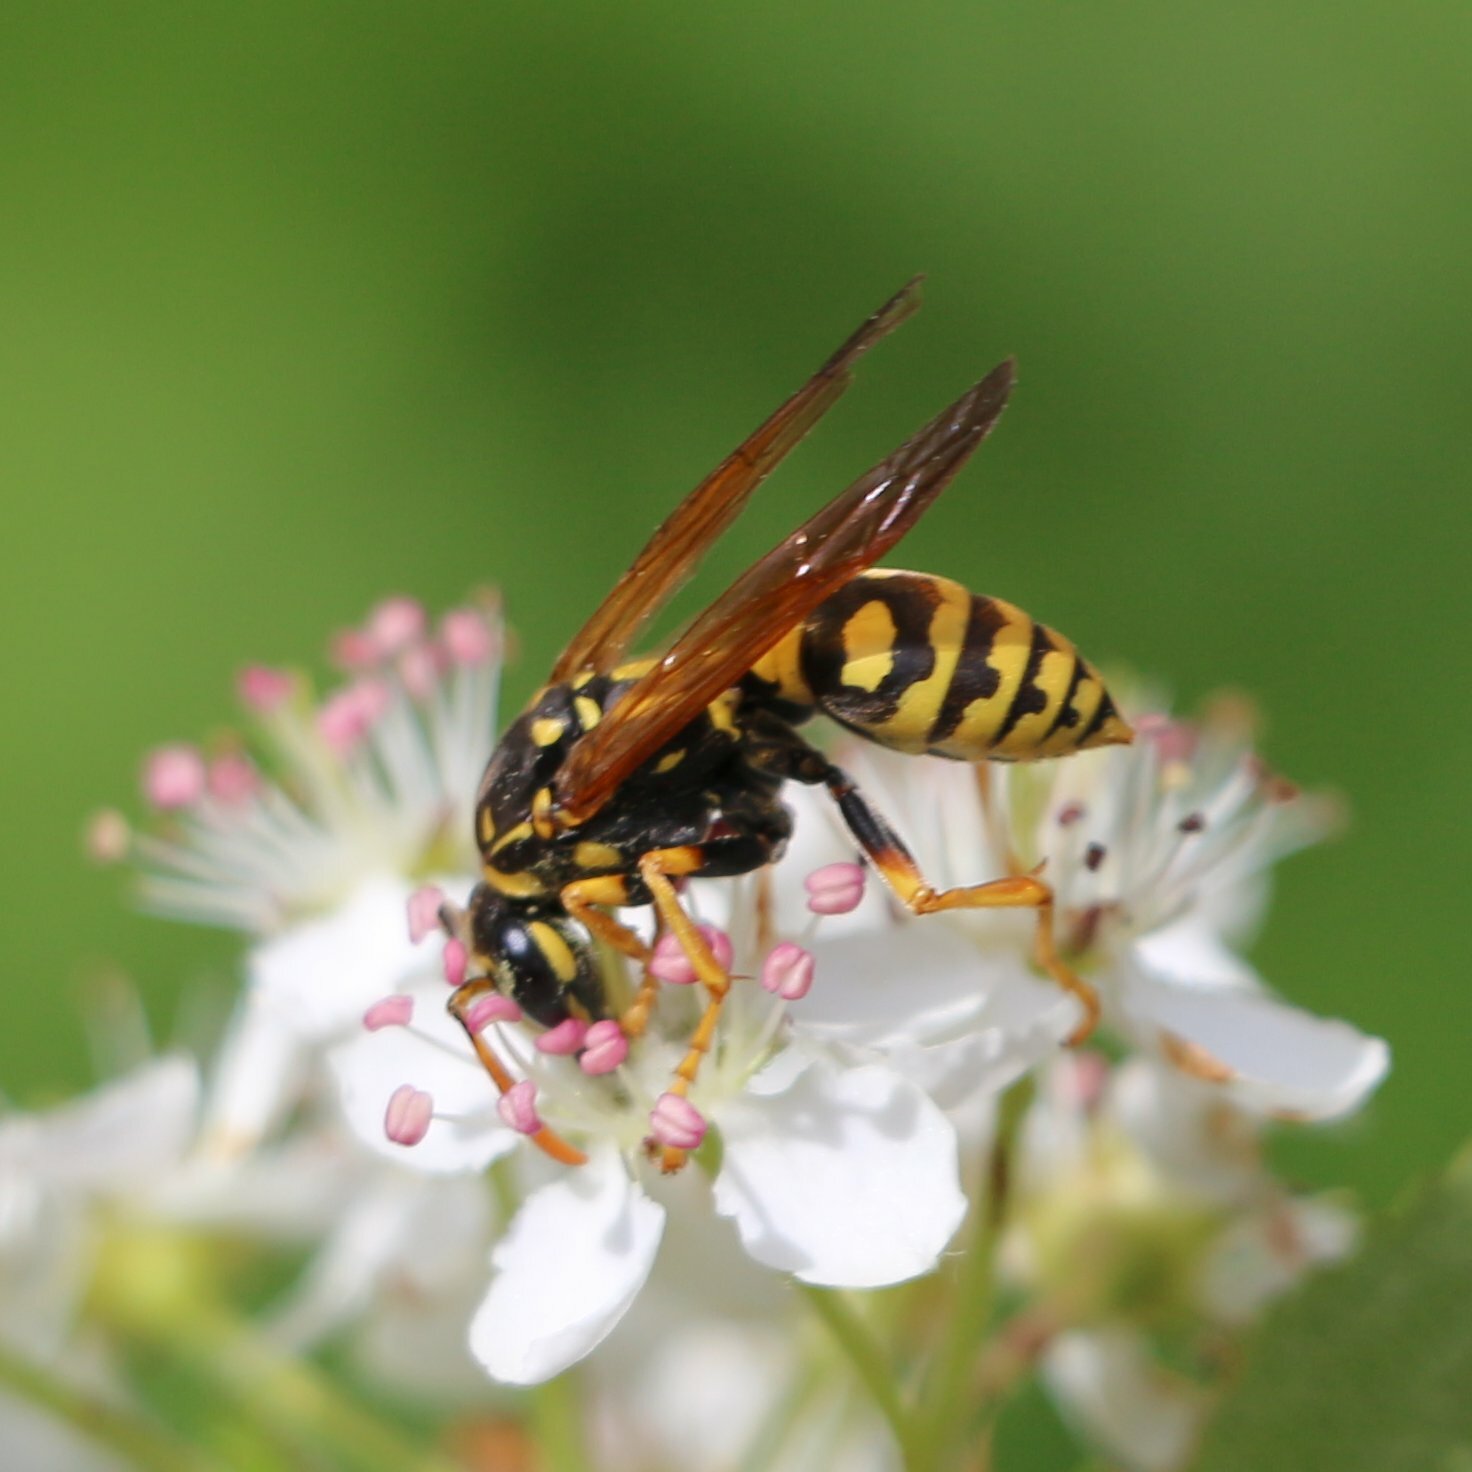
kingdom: Animalia
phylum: Arthropoda
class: Insecta
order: Hymenoptera
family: Eumenidae
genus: Polistes
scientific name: Polistes dominula
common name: Paper wasp
